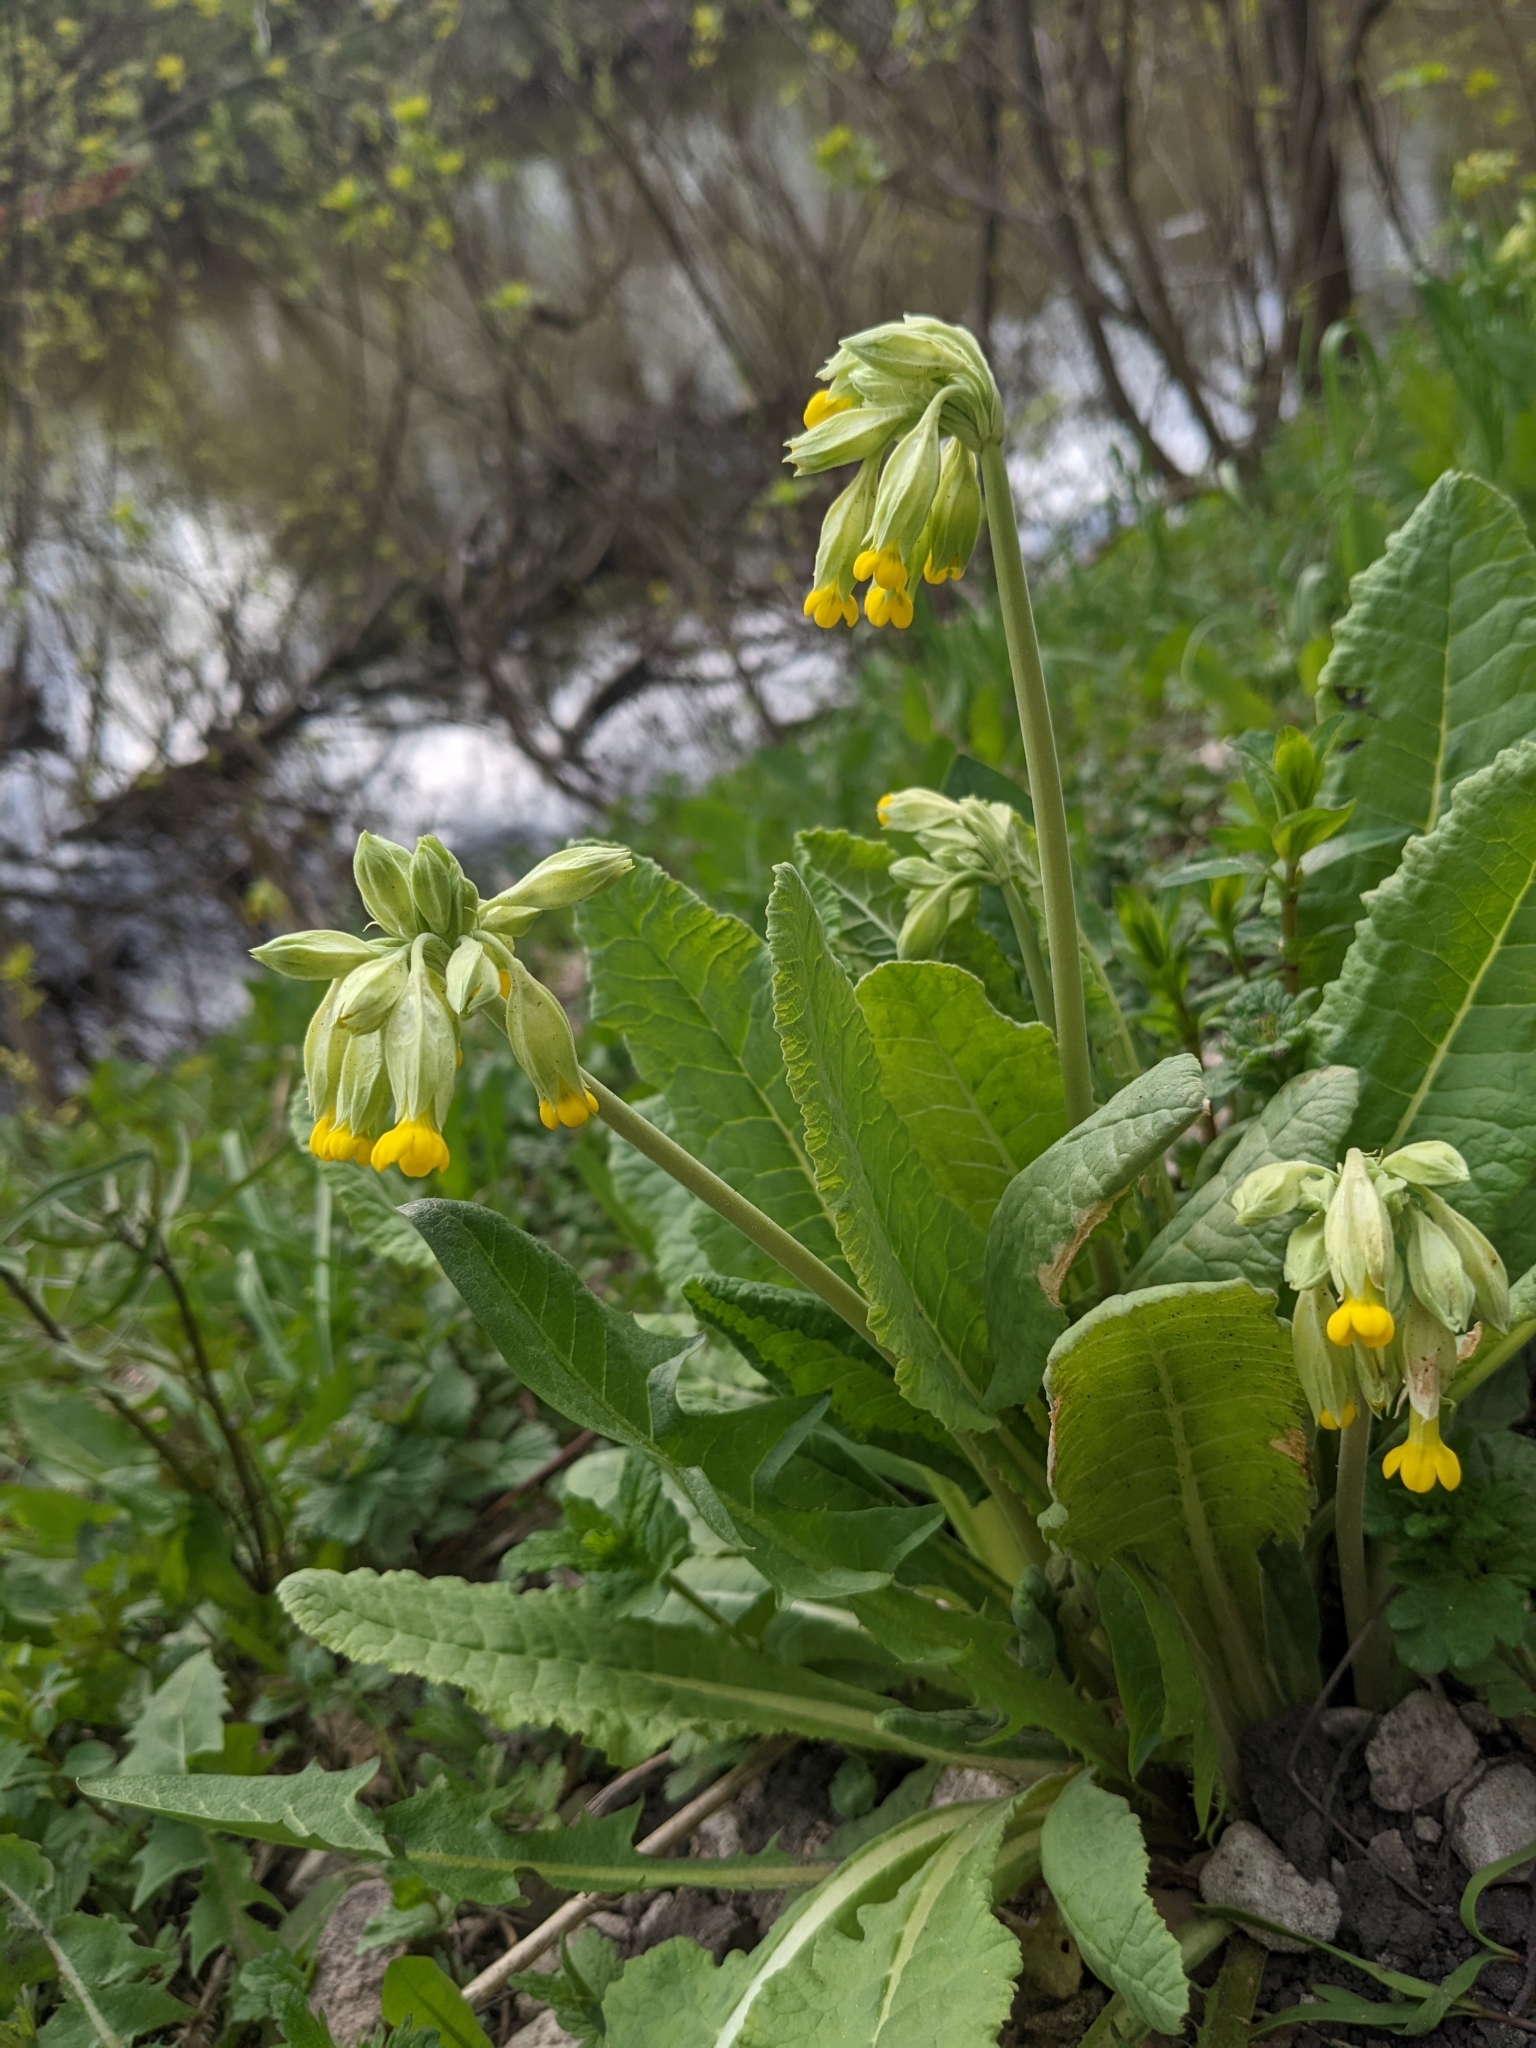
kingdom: Plantae
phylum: Tracheophyta
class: Magnoliopsida
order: Ericales
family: Primulaceae
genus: Primula
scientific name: Primula veris
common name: Cowslip
